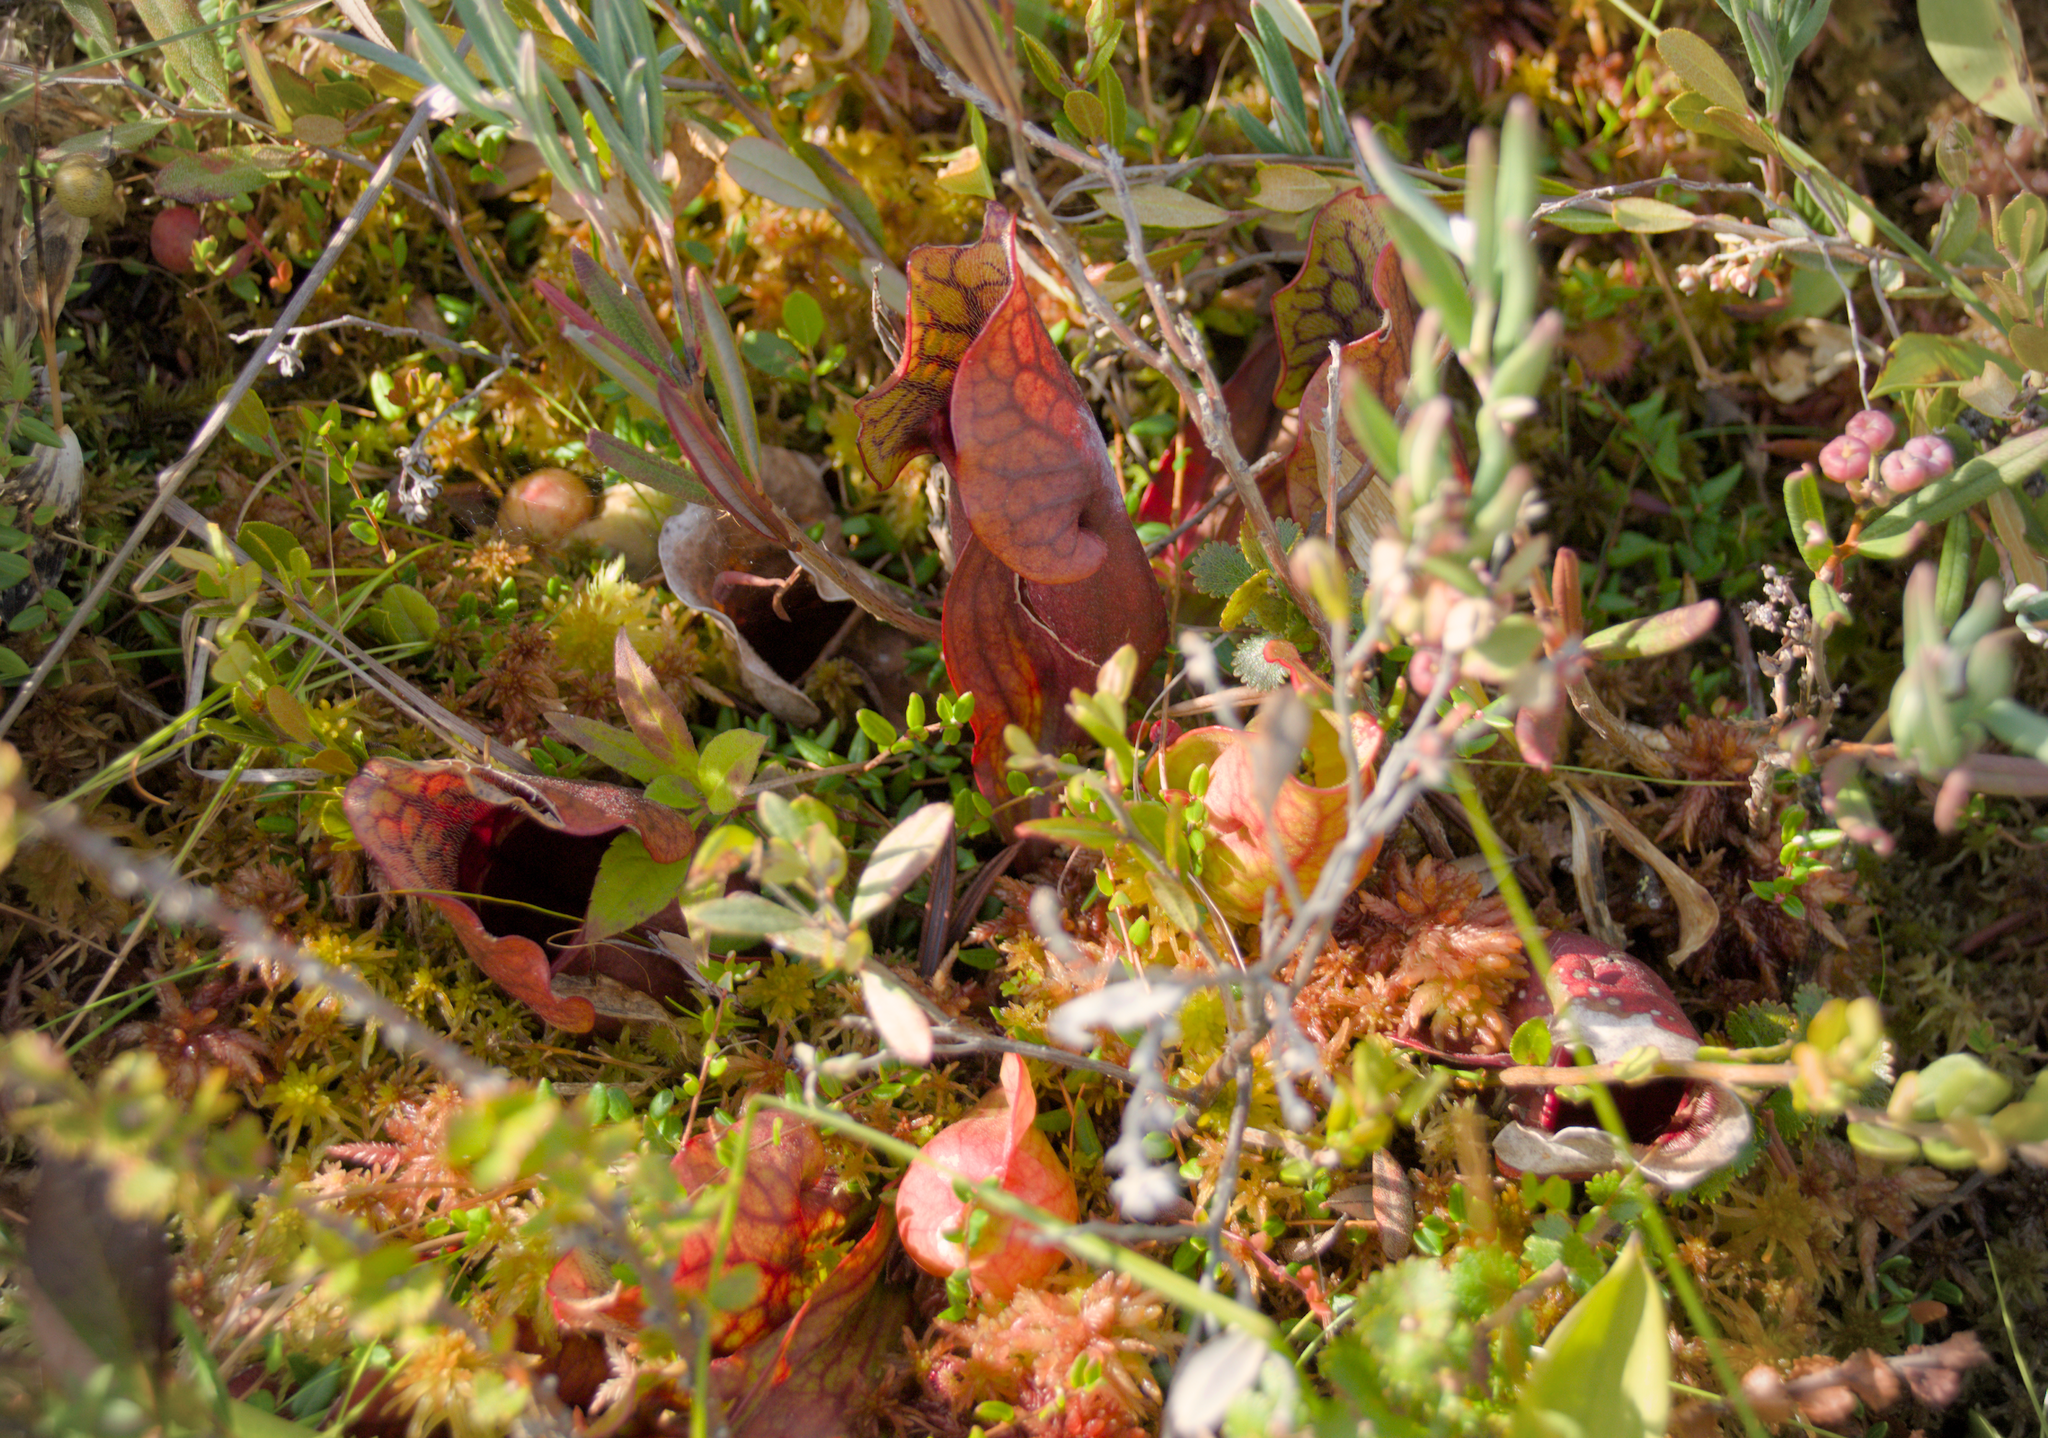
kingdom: Plantae
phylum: Tracheophyta
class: Magnoliopsida
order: Ericales
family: Sarraceniaceae
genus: Sarracenia
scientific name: Sarracenia purpurea
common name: Pitcherplant
